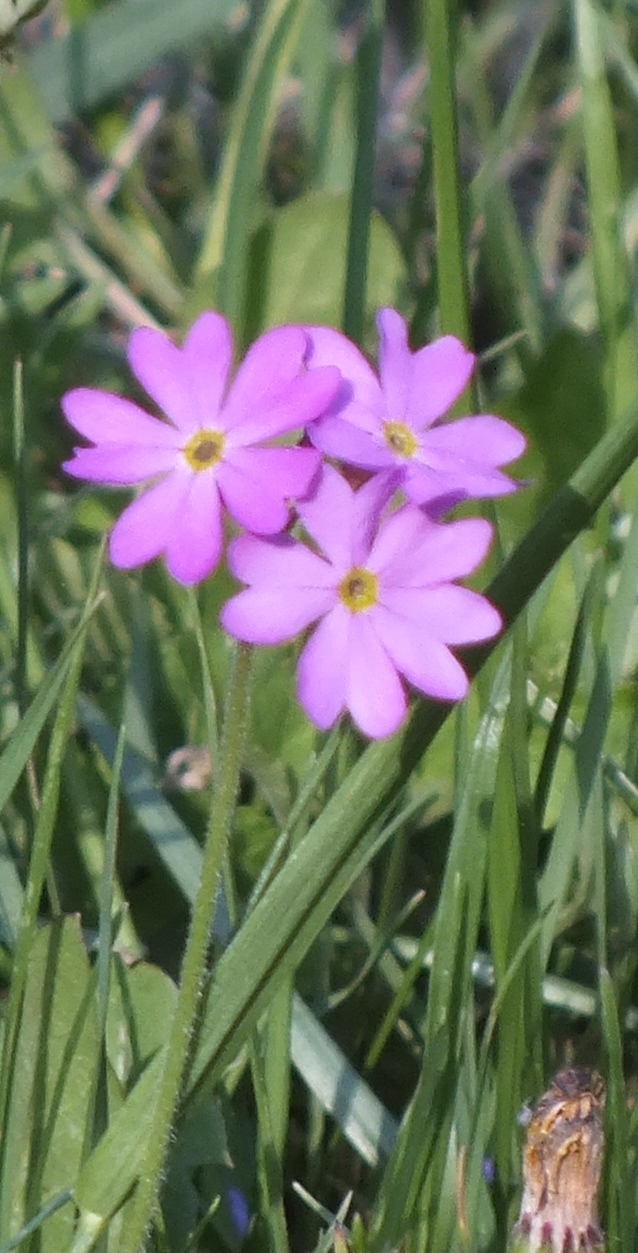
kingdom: Plantae
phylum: Tracheophyta
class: Magnoliopsida
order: Ericales
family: Primulaceae
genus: Primula
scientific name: Primula cortusoides
